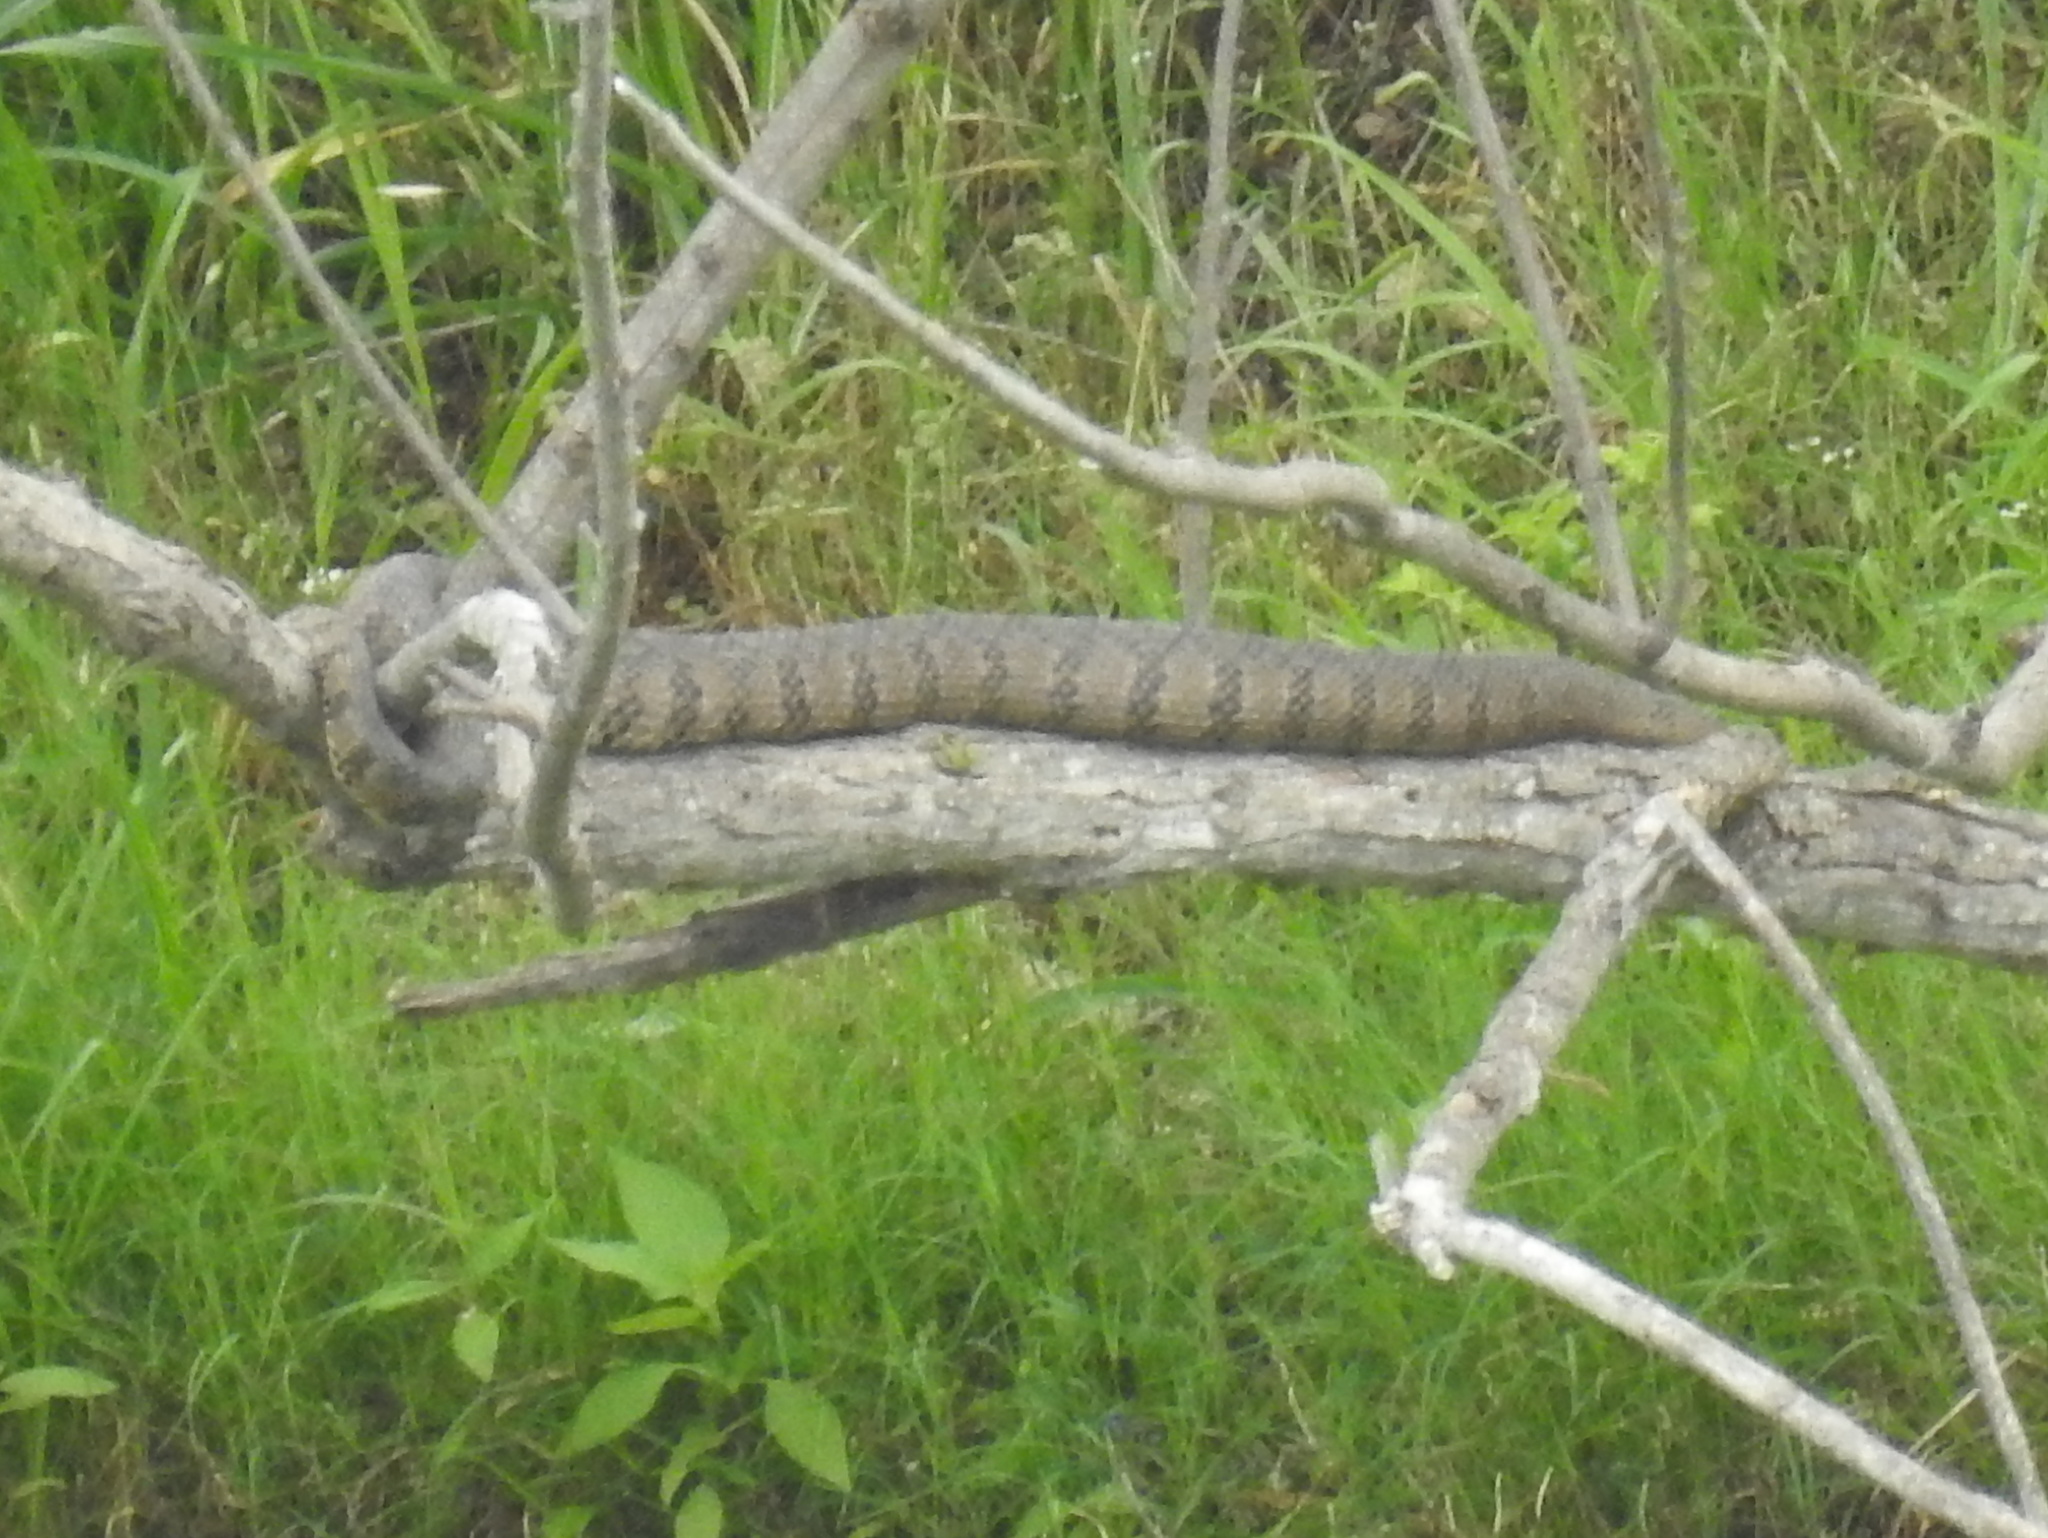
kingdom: Animalia
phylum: Chordata
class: Squamata
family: Colubridae
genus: Nerodia
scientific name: Nerodia rhombifer
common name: Diamondback water snake
